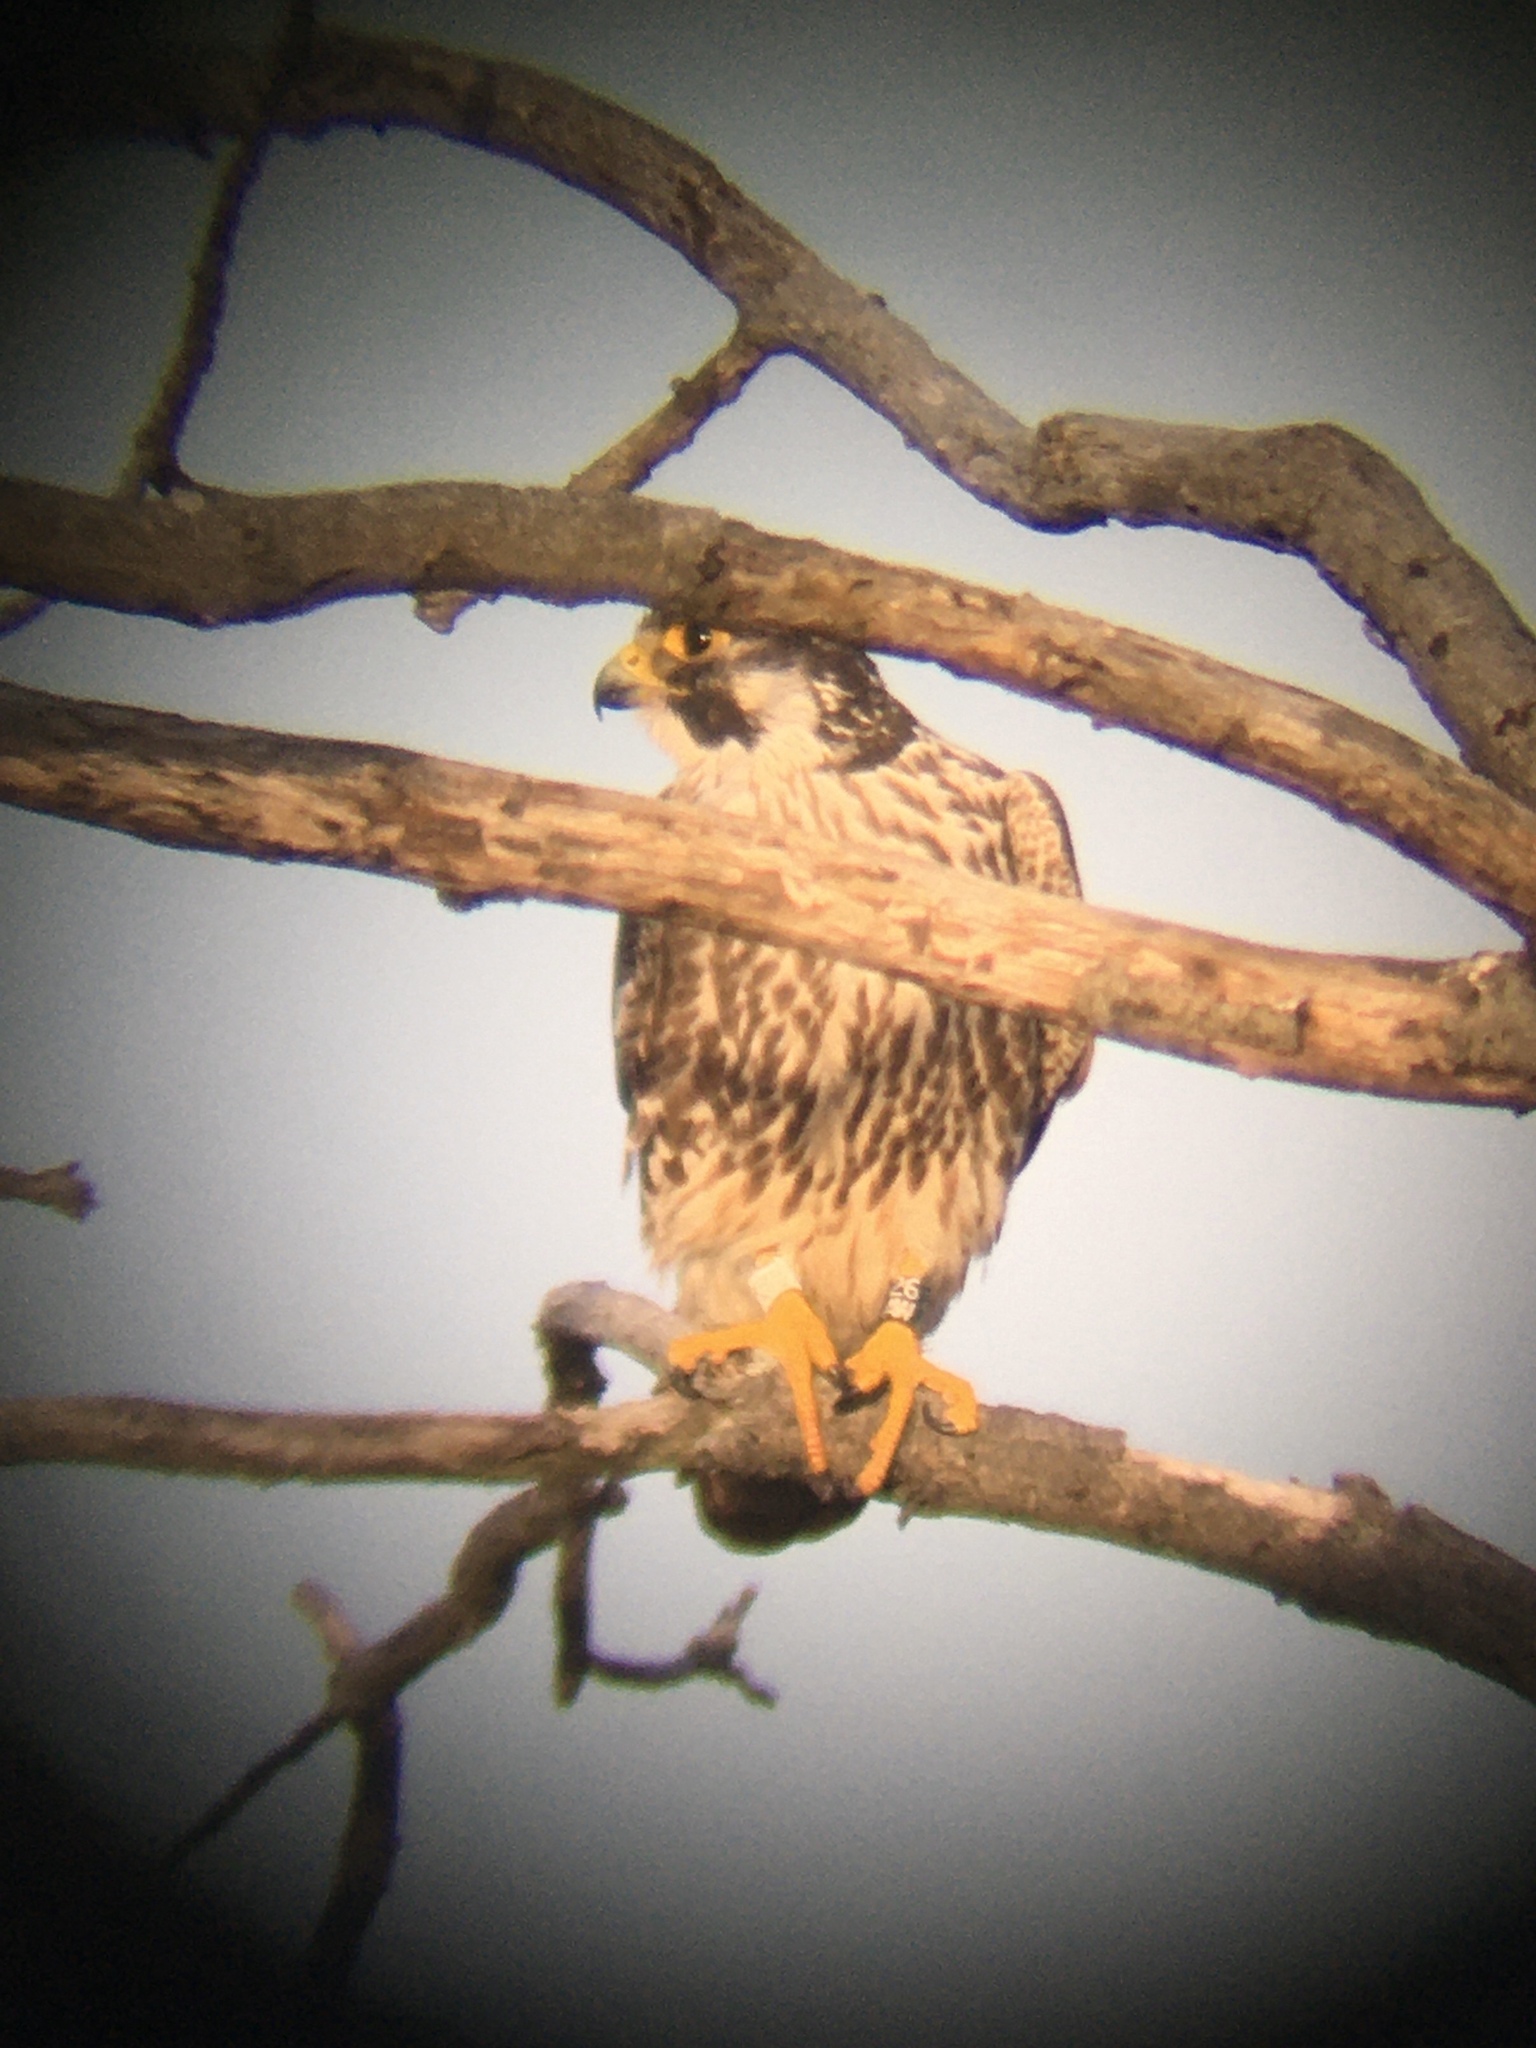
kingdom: Animalia
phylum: Chordata
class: Aves
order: Falconiformes
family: Falconidae
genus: Falco
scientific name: Falco peregrinus
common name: Peregrine falcon
